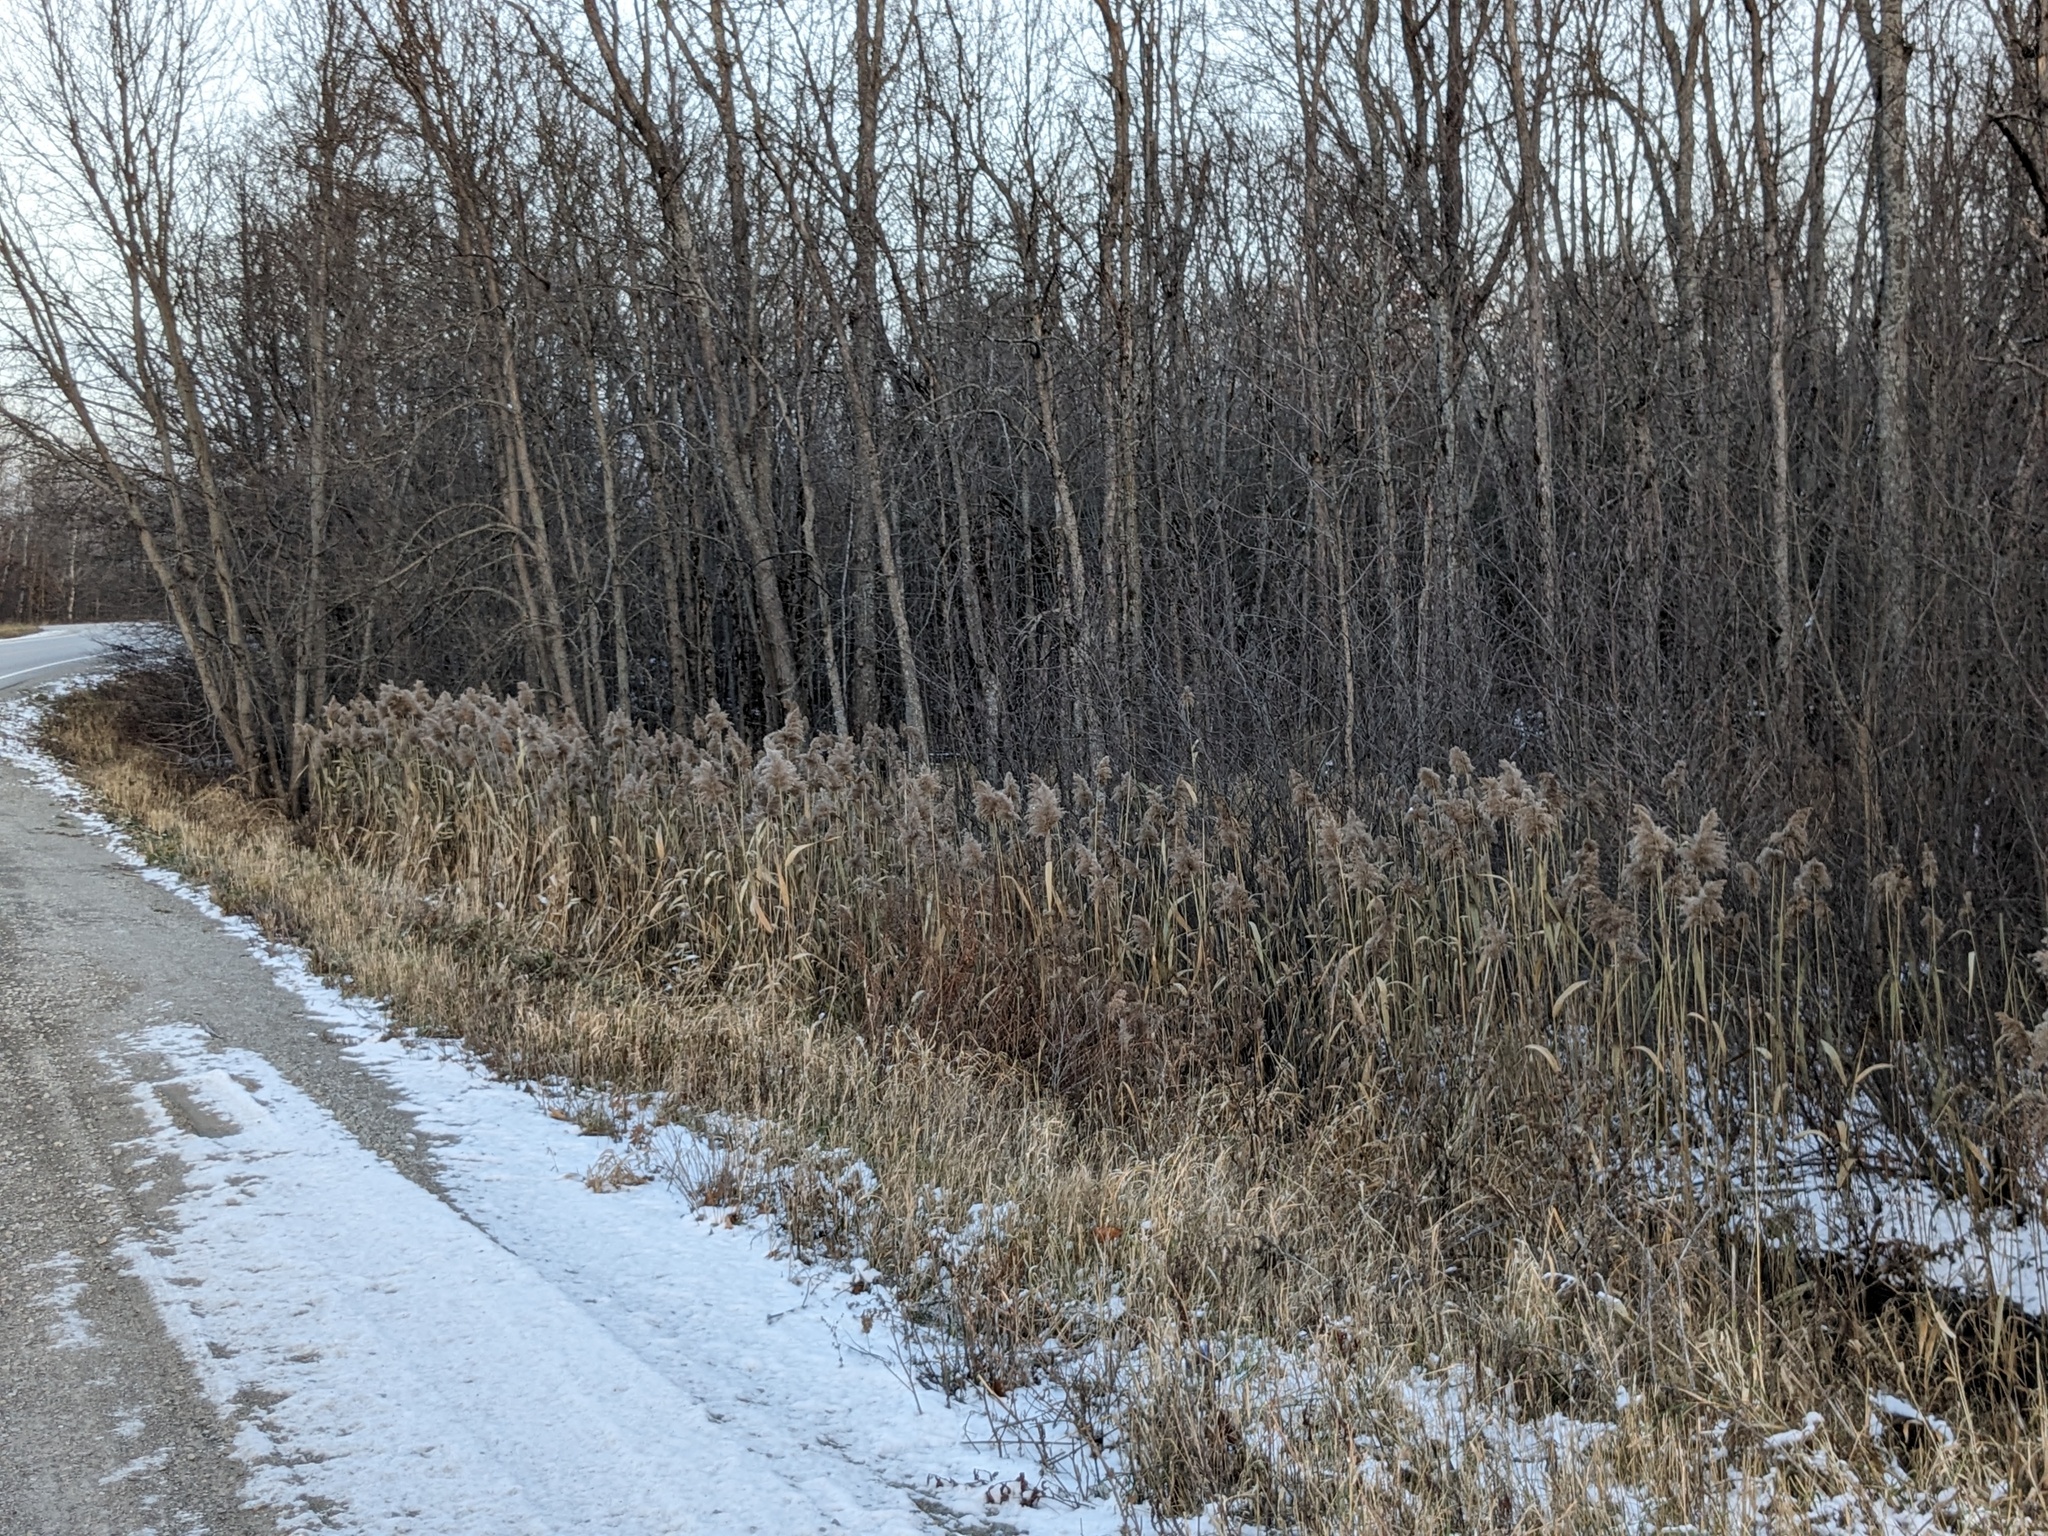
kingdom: Plantae
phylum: Tracheophyta
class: Liliopsida
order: Poales
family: Poaceae
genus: Phragmites
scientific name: Phragmites australis
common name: Common reed
